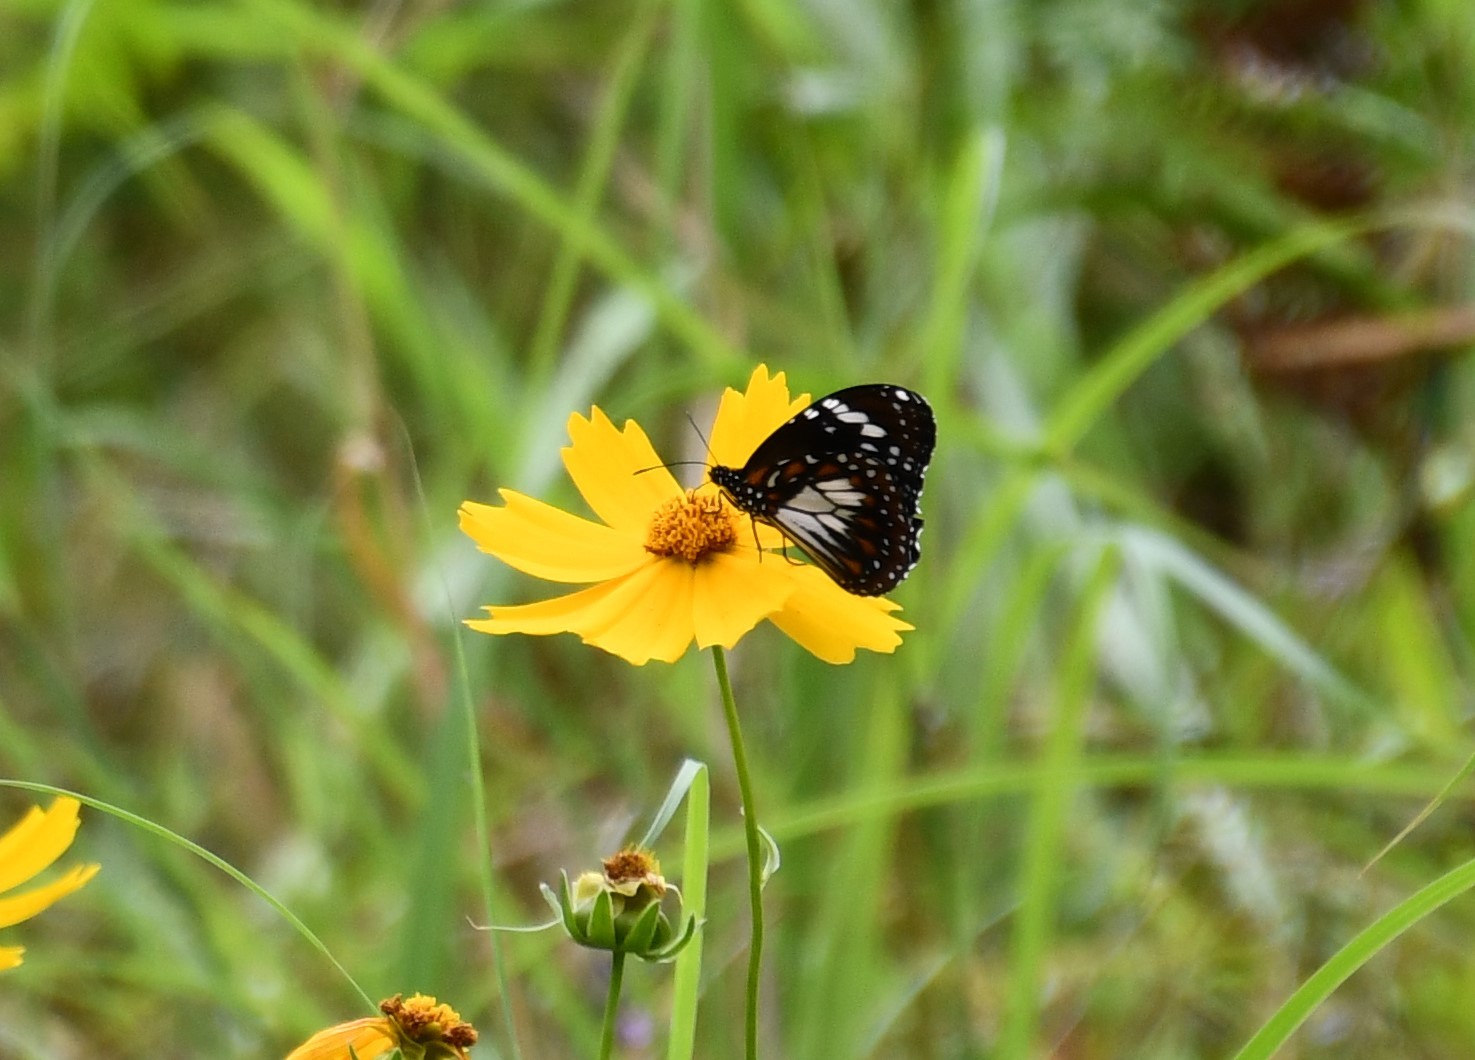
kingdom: Animalia
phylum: Arthropoda
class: Insecta
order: Lepidoptera
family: Nymphalidae
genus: Danaus
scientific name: Danaus affinis
